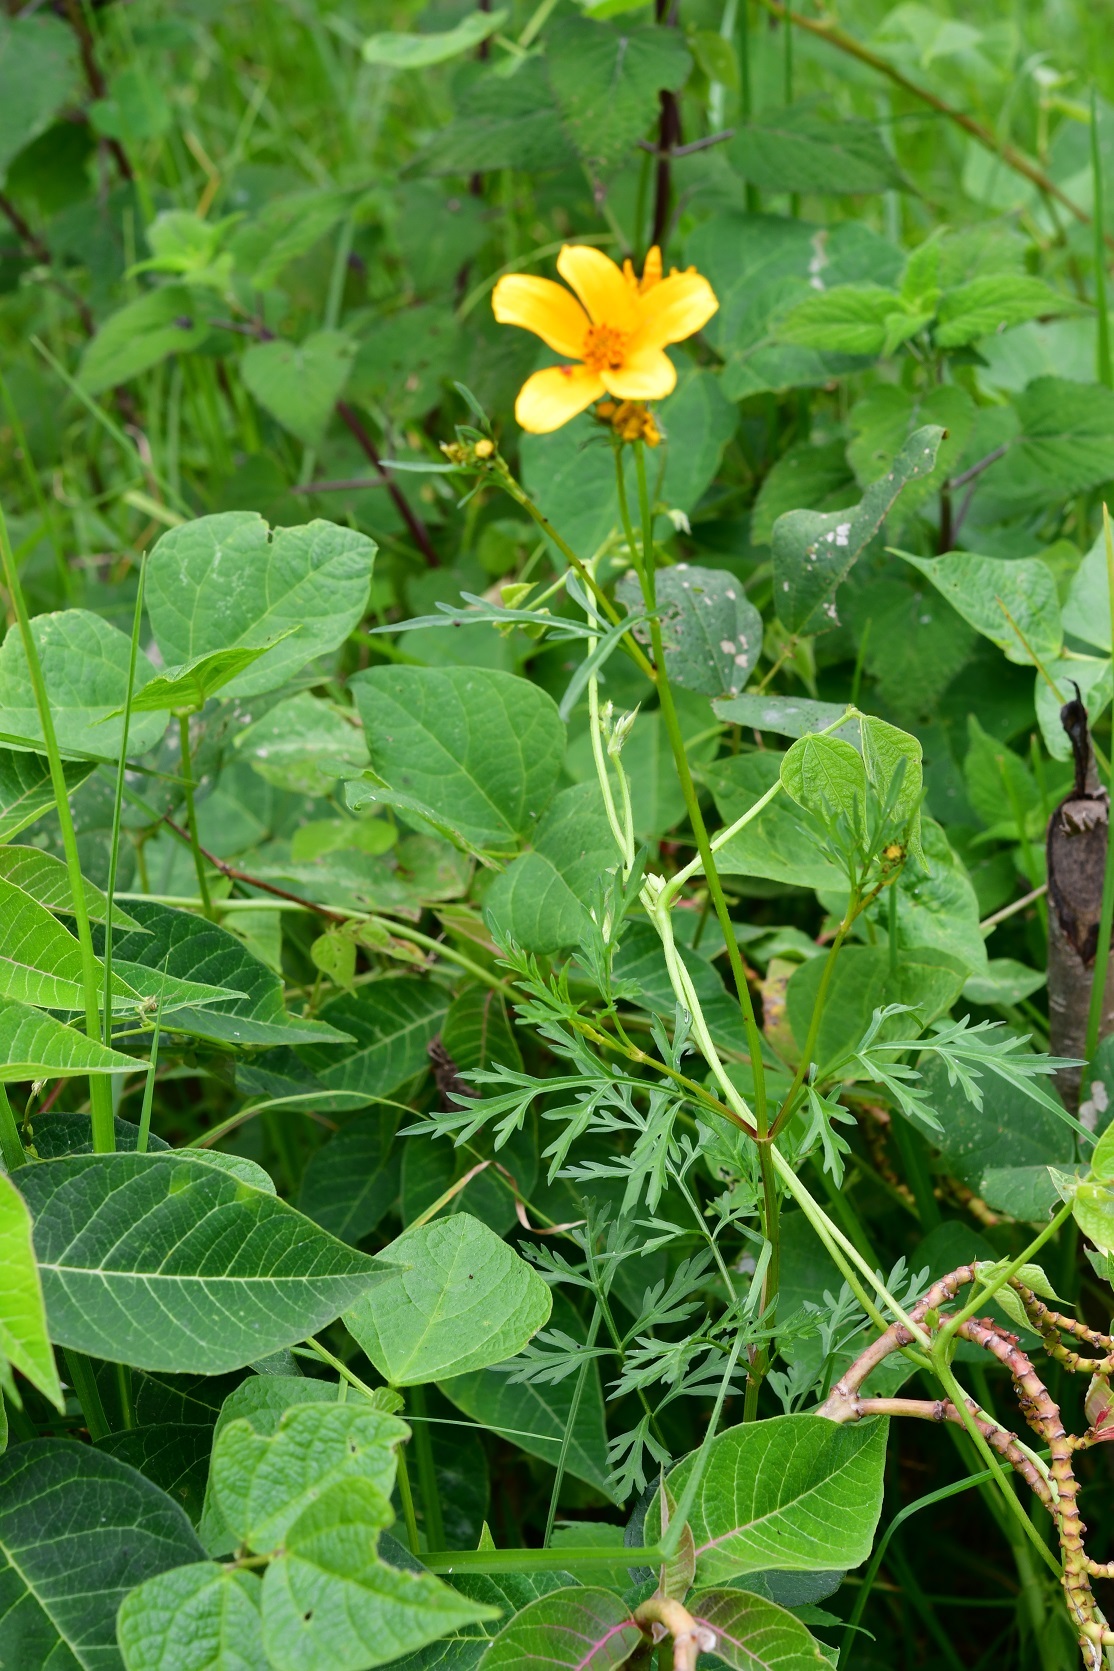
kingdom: Plantae
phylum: Tracheophyta
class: Magnoliopsida
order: Asterales
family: Asteraceae
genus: Bidens
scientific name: Bidens triplinervia
